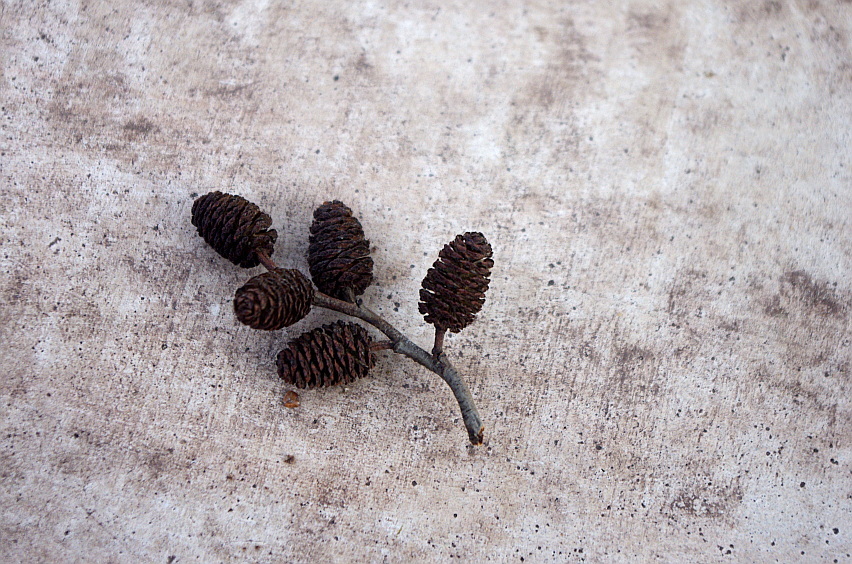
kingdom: Plantae
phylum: Tracheophyta
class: Magnoliopsida
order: Fagales
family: Betulaceae
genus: Alnus
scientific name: Alnus incana
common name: Grey alder
